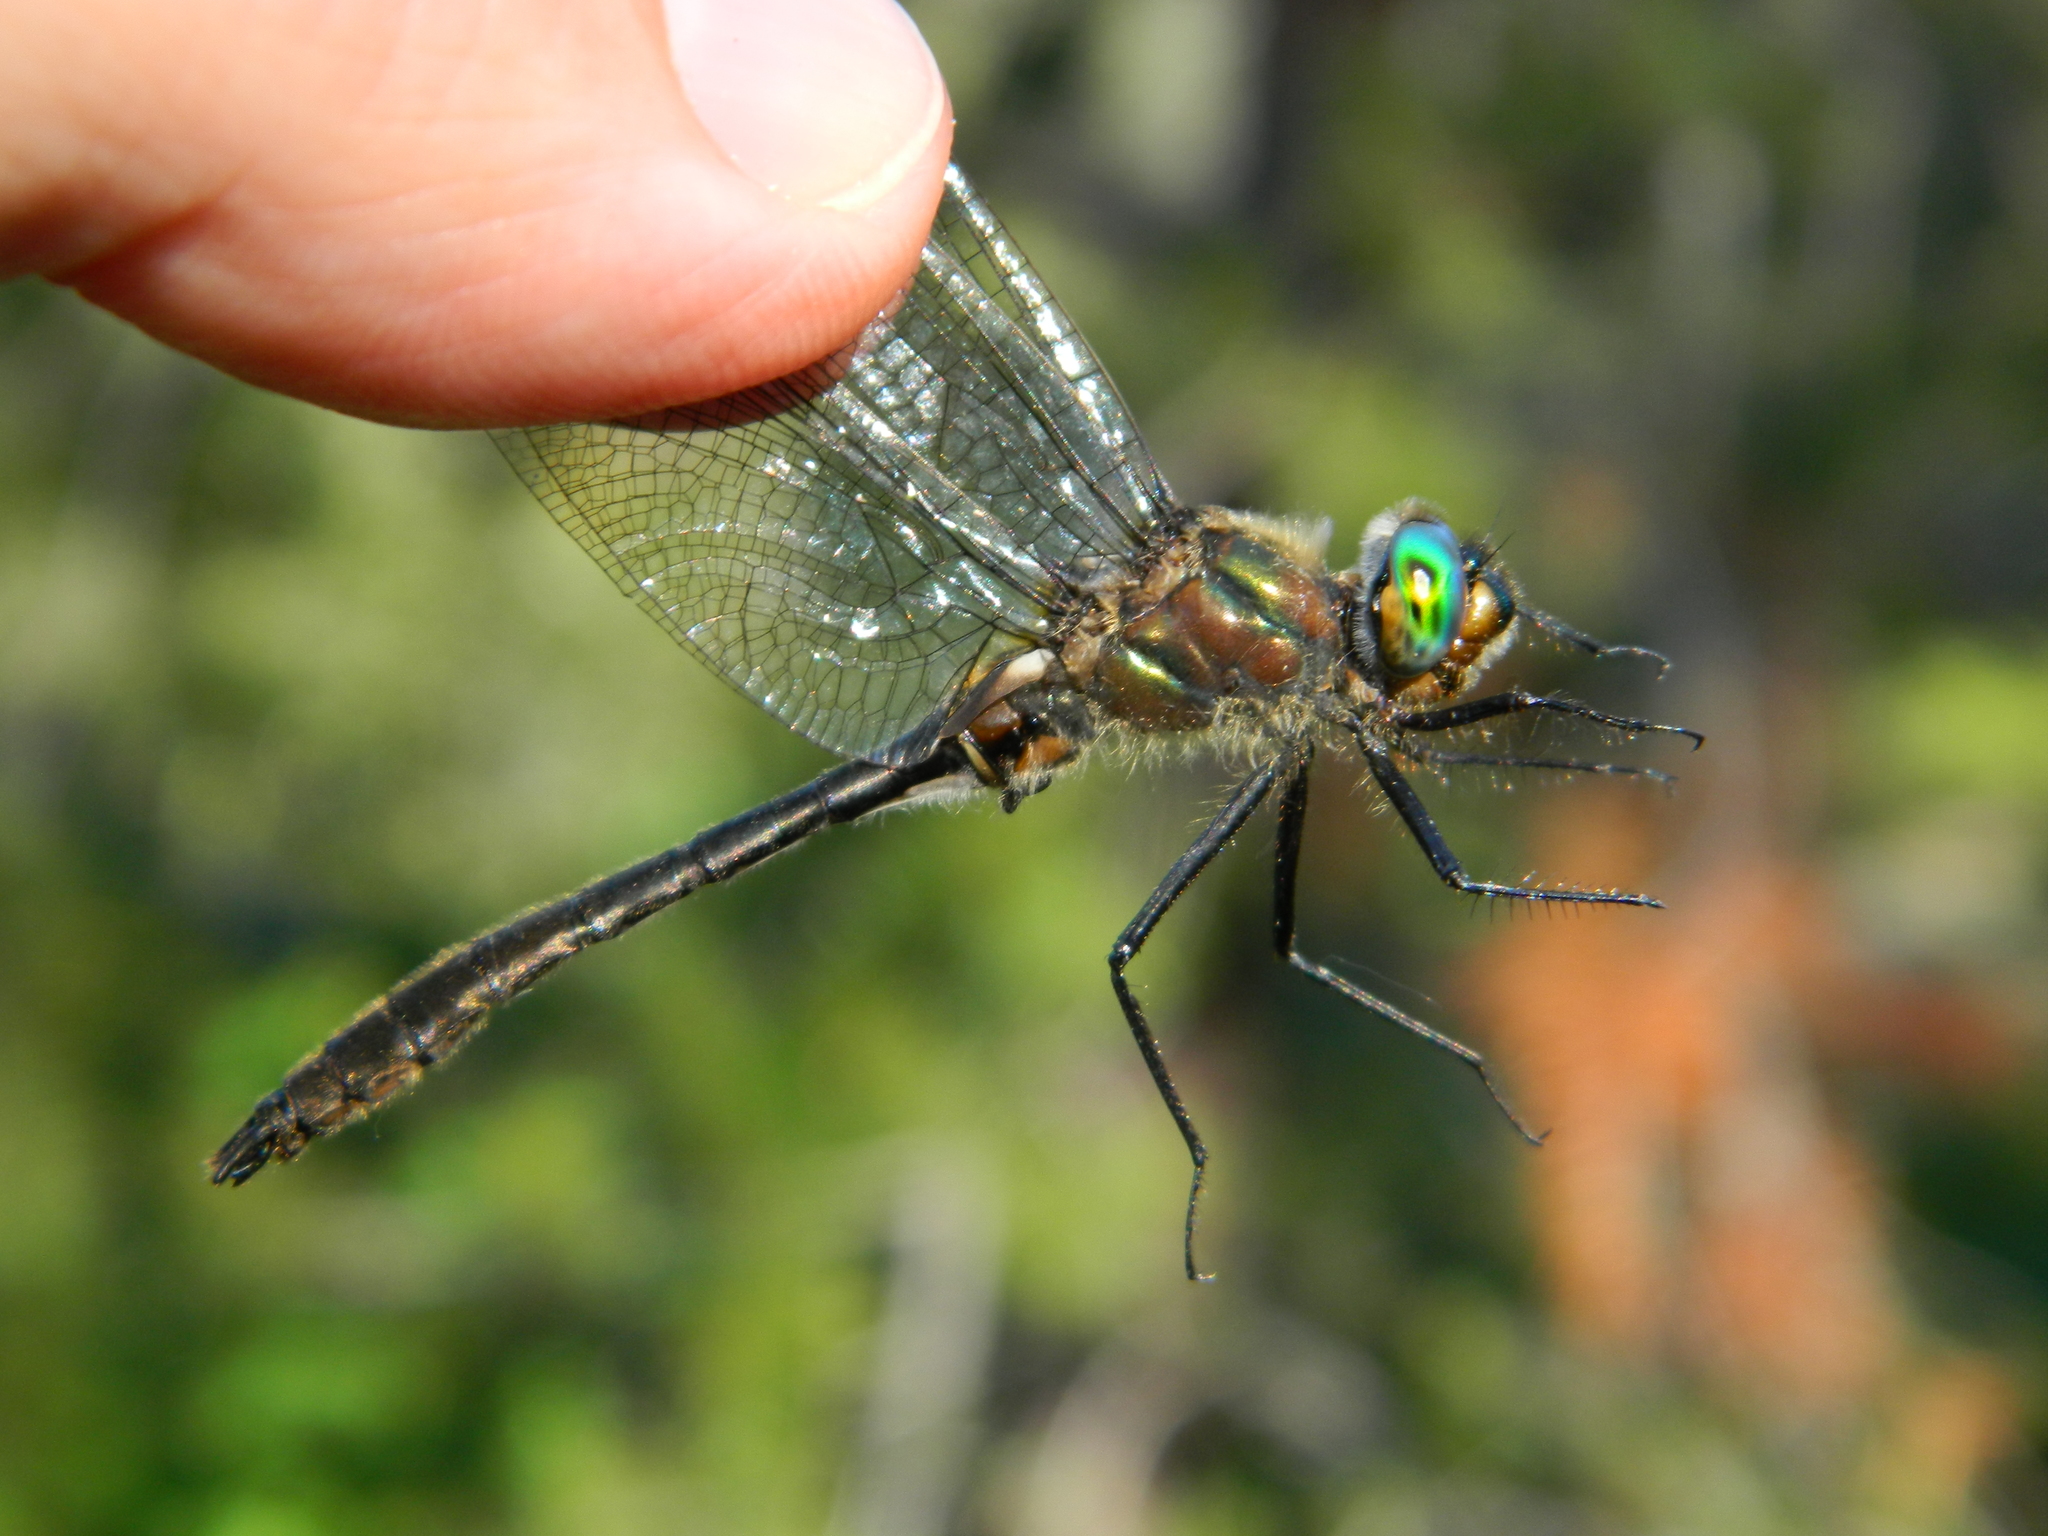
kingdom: Animalia
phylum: Arthropoda
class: Insecta
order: Odonata
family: Corduliidae
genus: Cordulia
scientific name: Cordulia shurtleffii
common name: American emerald
